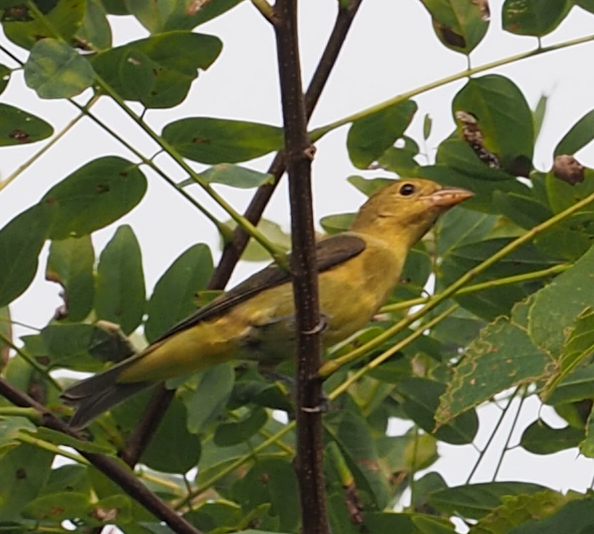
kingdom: Animalia
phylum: Chordata
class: Aves
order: Passeriformes
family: Cardinalidae
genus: Piranga
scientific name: Piranga olivacea
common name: Scarlet tanager
